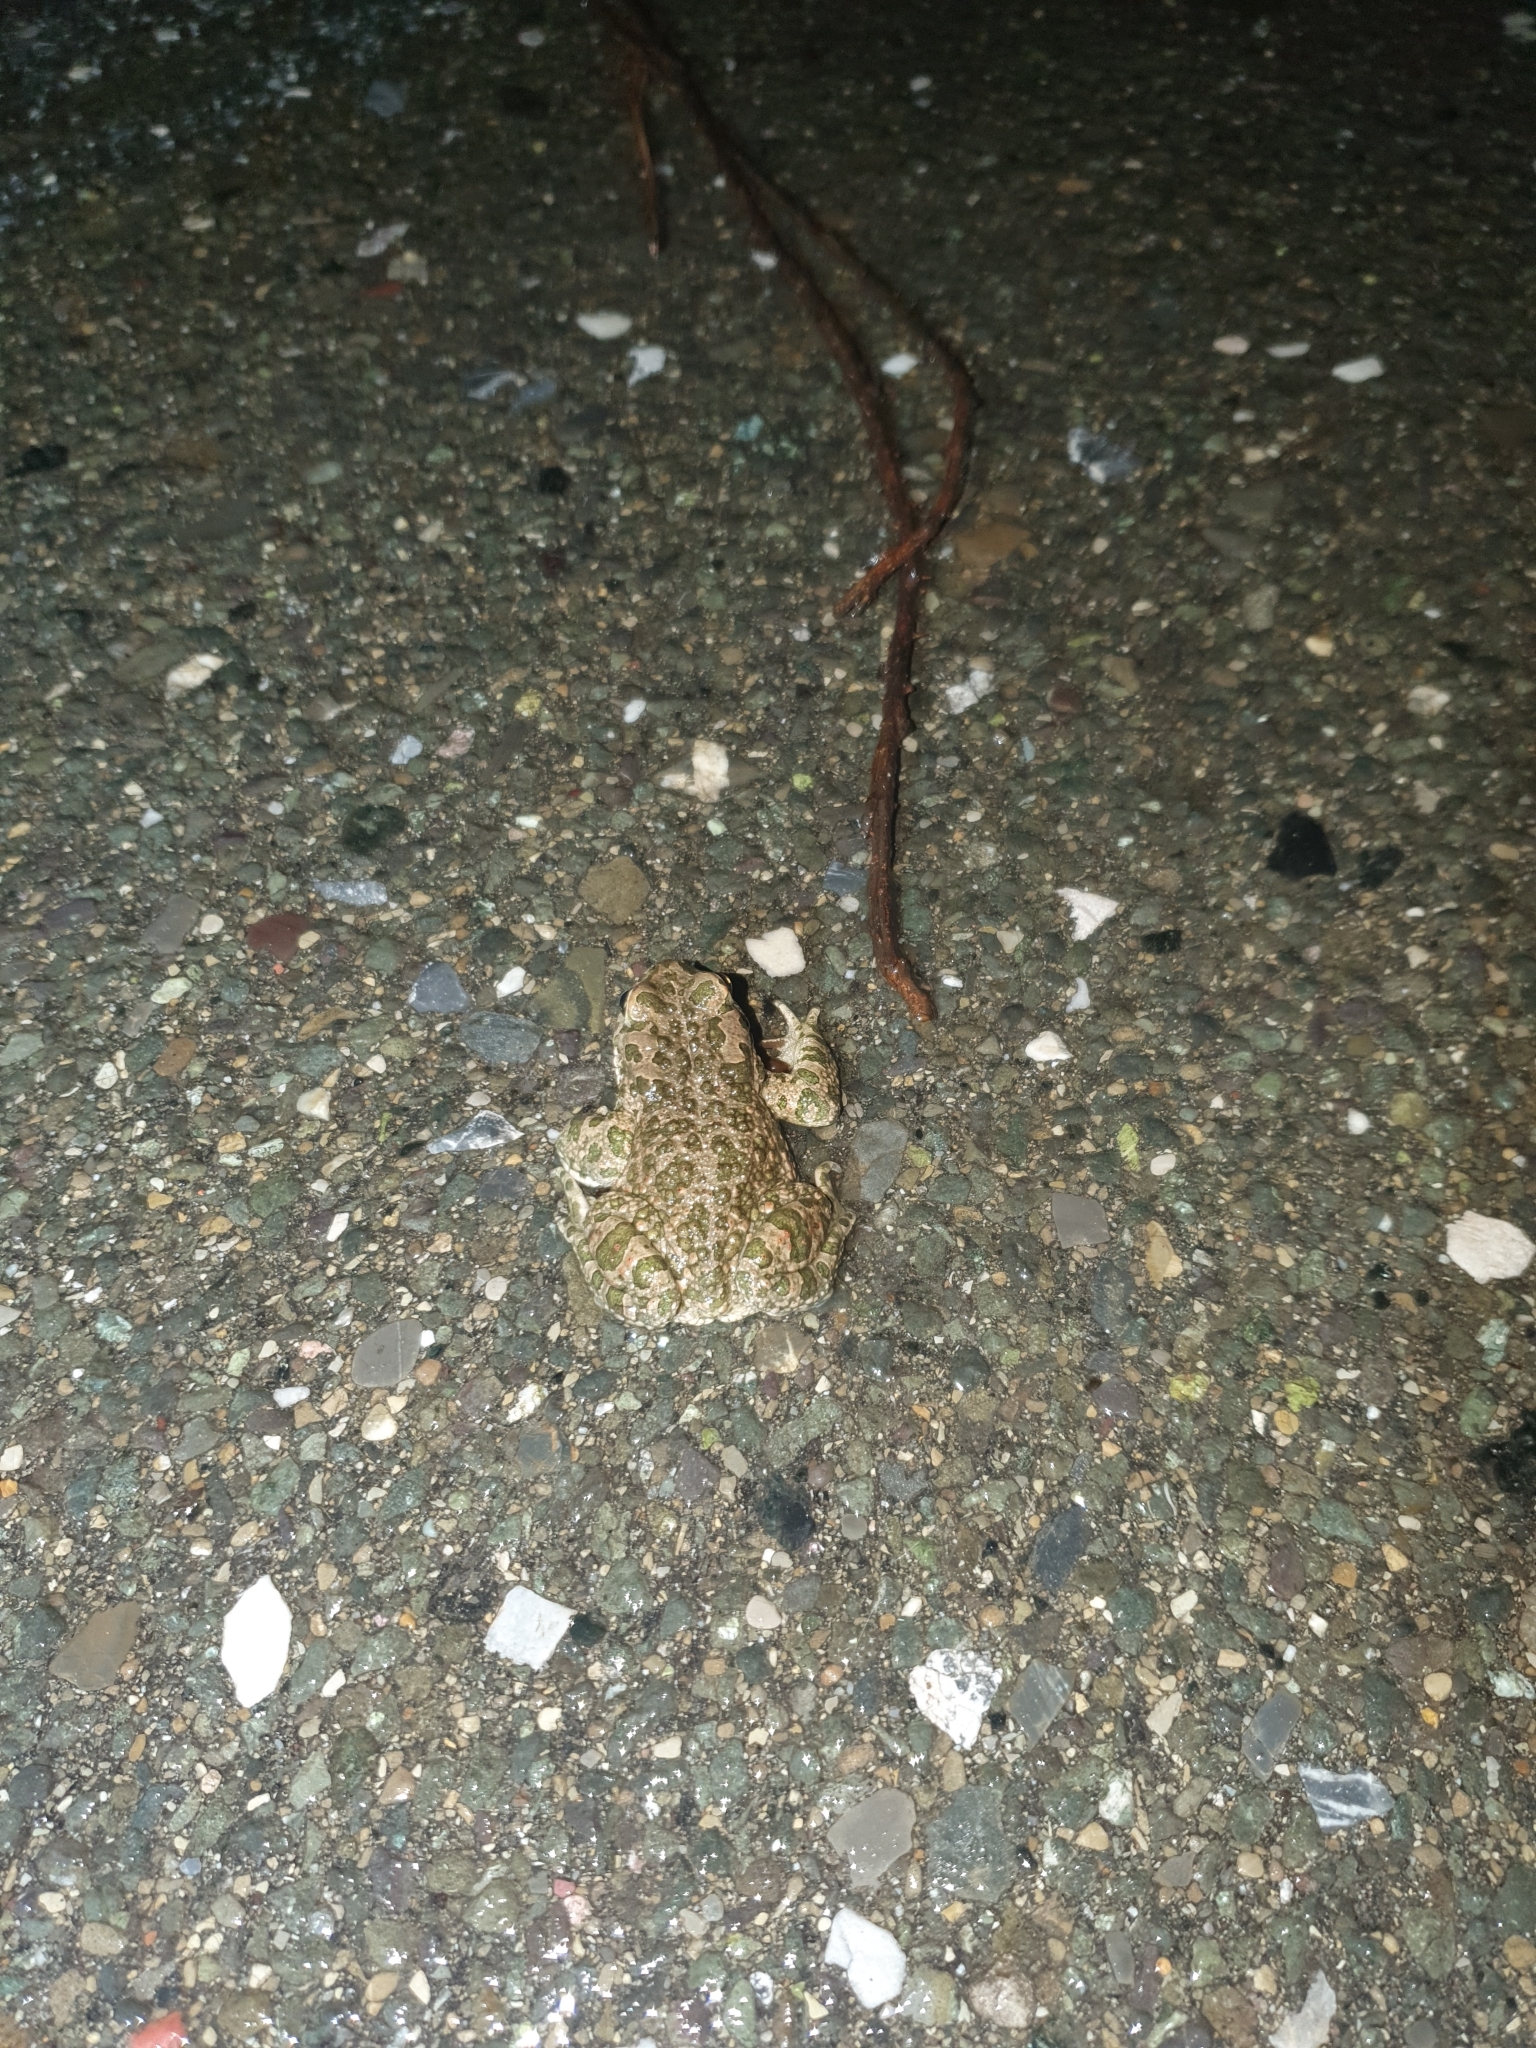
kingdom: Animalia
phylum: Chordata
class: Amphibia
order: Anura
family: Bufonidae
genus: Bufotes
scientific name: Bufotes viridis
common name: European green toad
